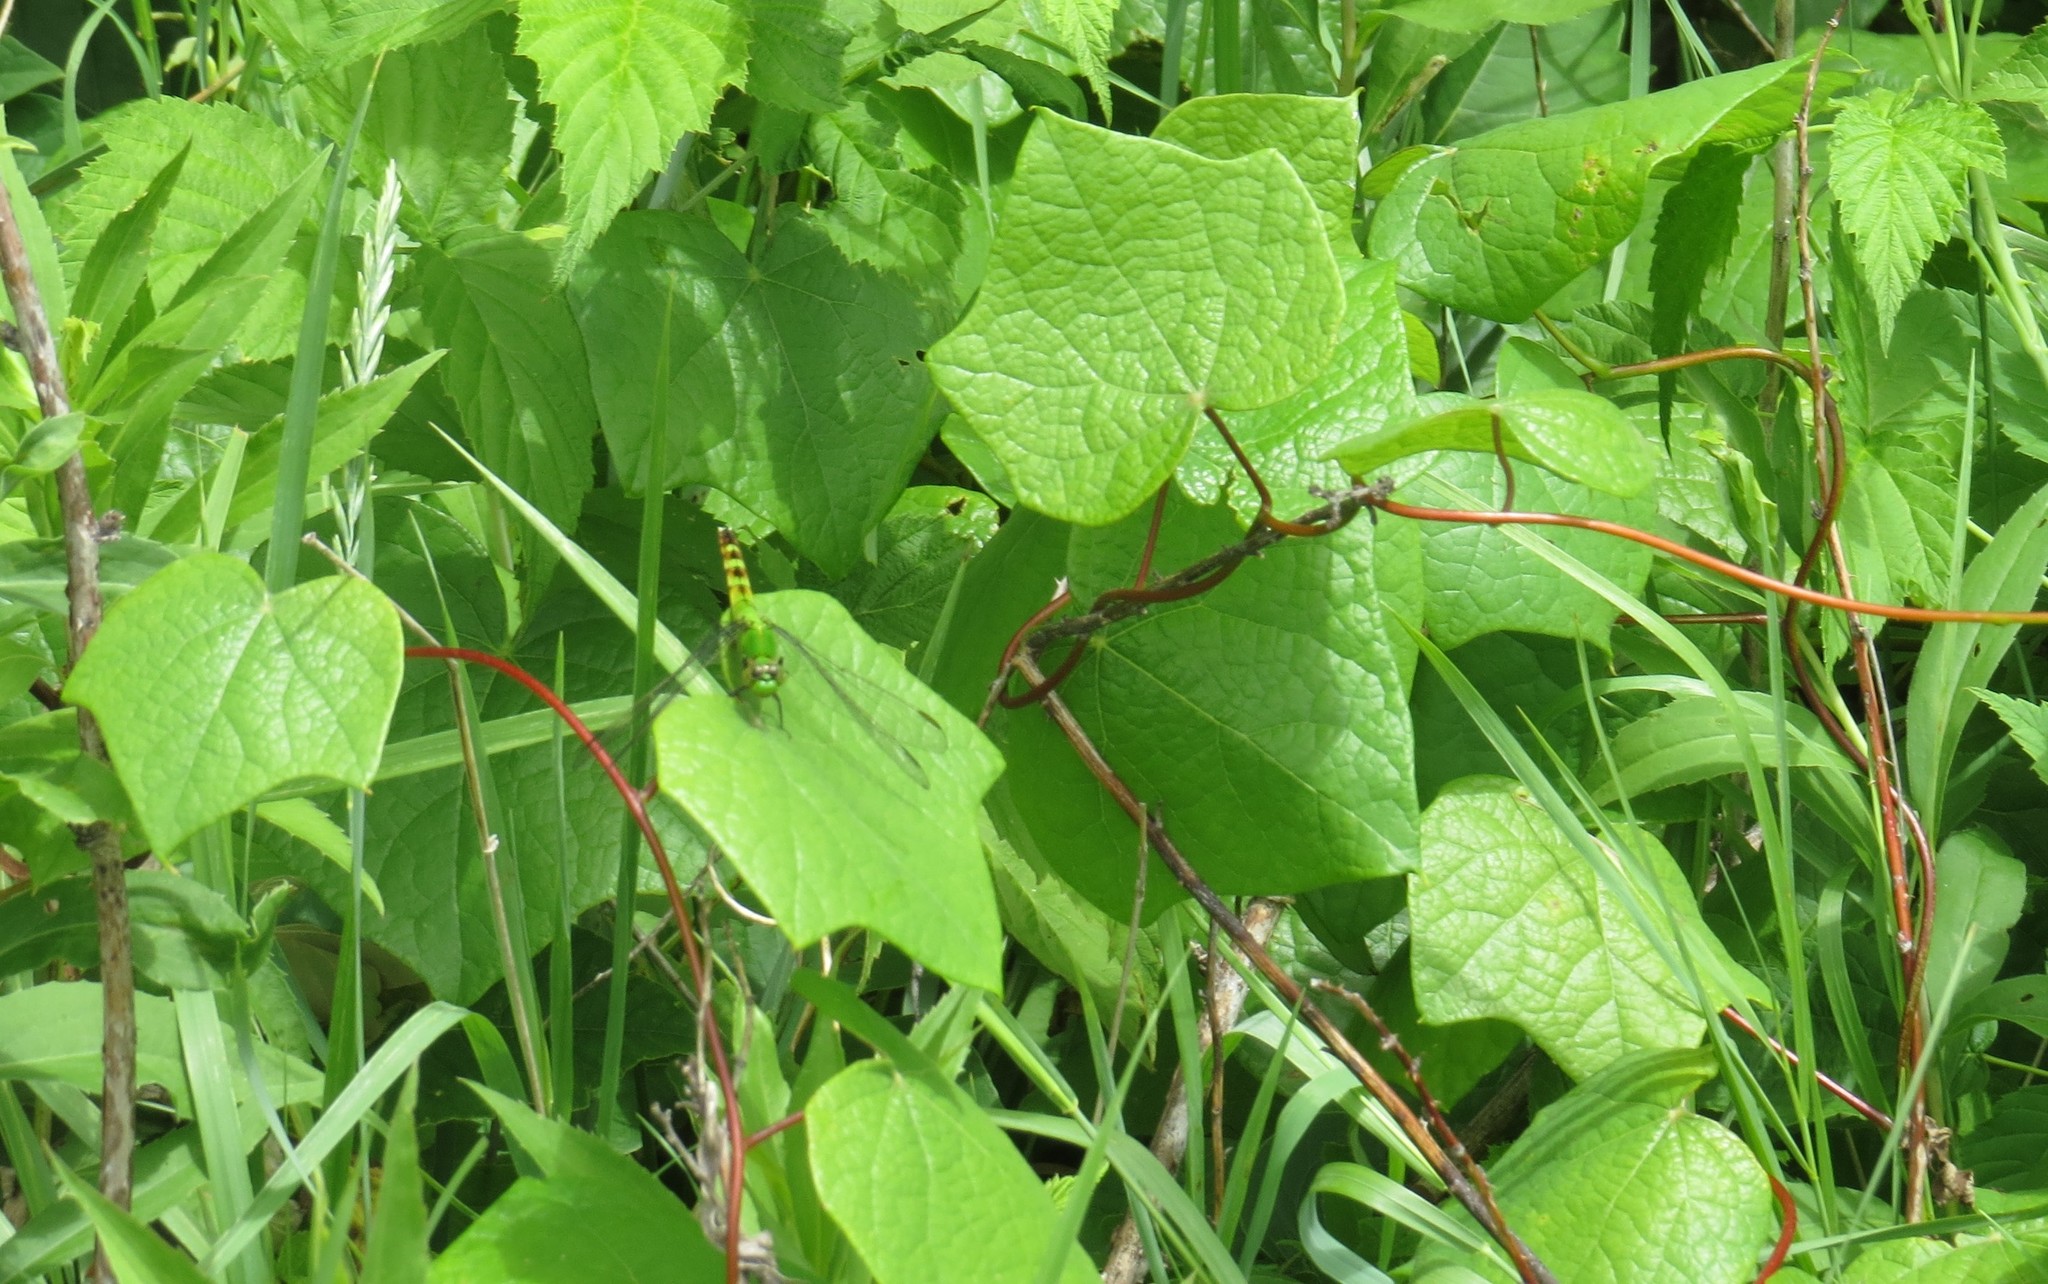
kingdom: Plantae
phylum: Tracheophyta
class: Magnoliopsida
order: Ranunculales
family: Menispermaceae
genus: Menispermum
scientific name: Menispermum canadense
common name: Moonseed
